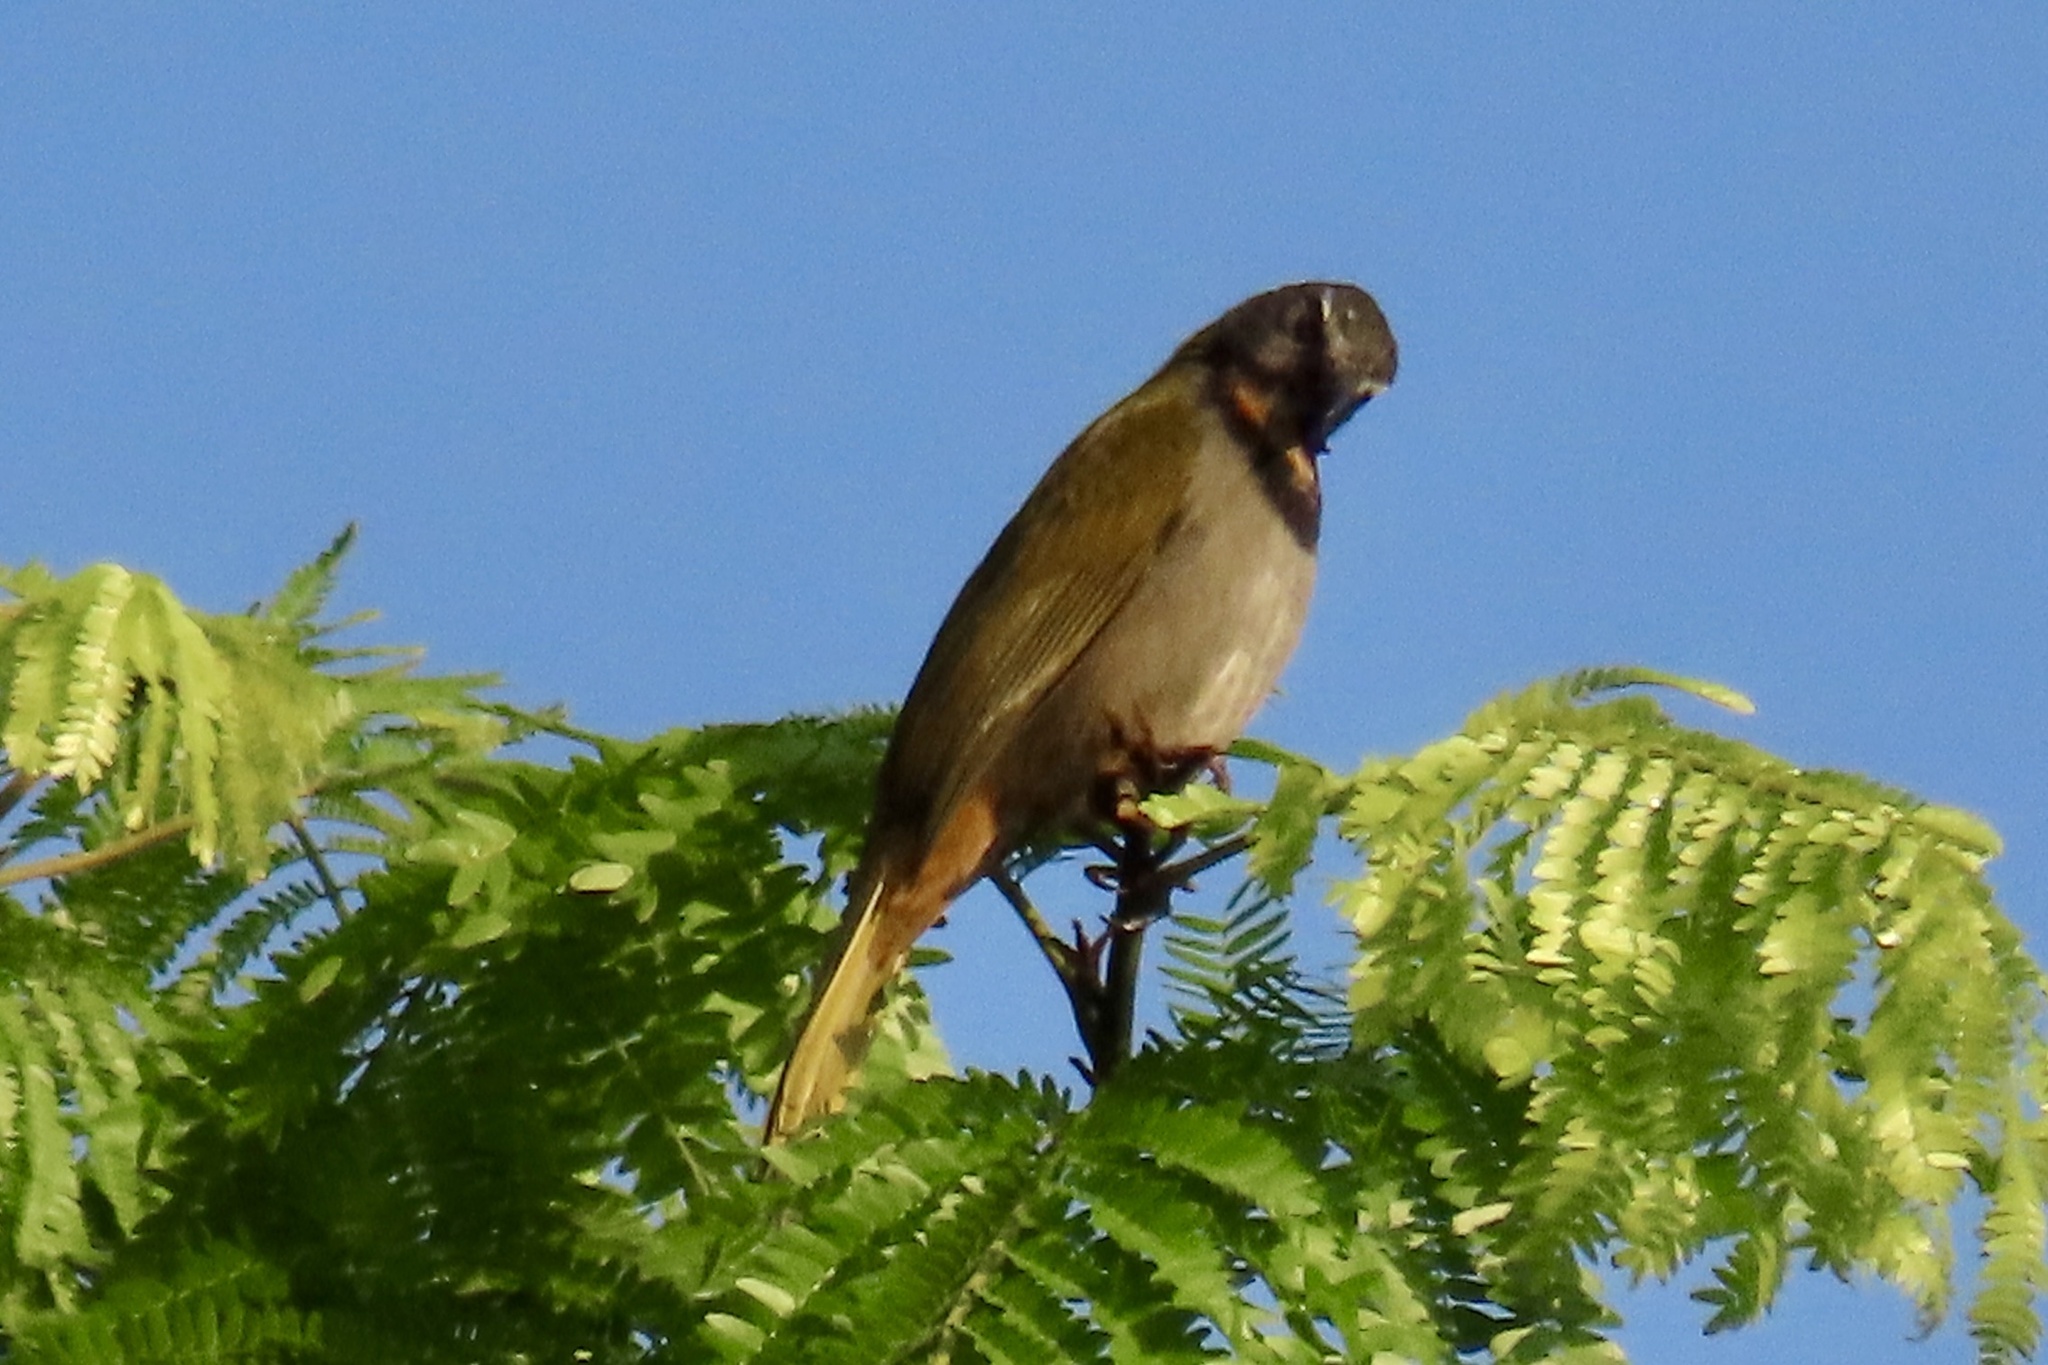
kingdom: Animalia
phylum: Chordata
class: Aves
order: Passeriformes
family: Thraupidae
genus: Saltator
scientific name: Saltator maximus
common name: Buff-throated saltator
